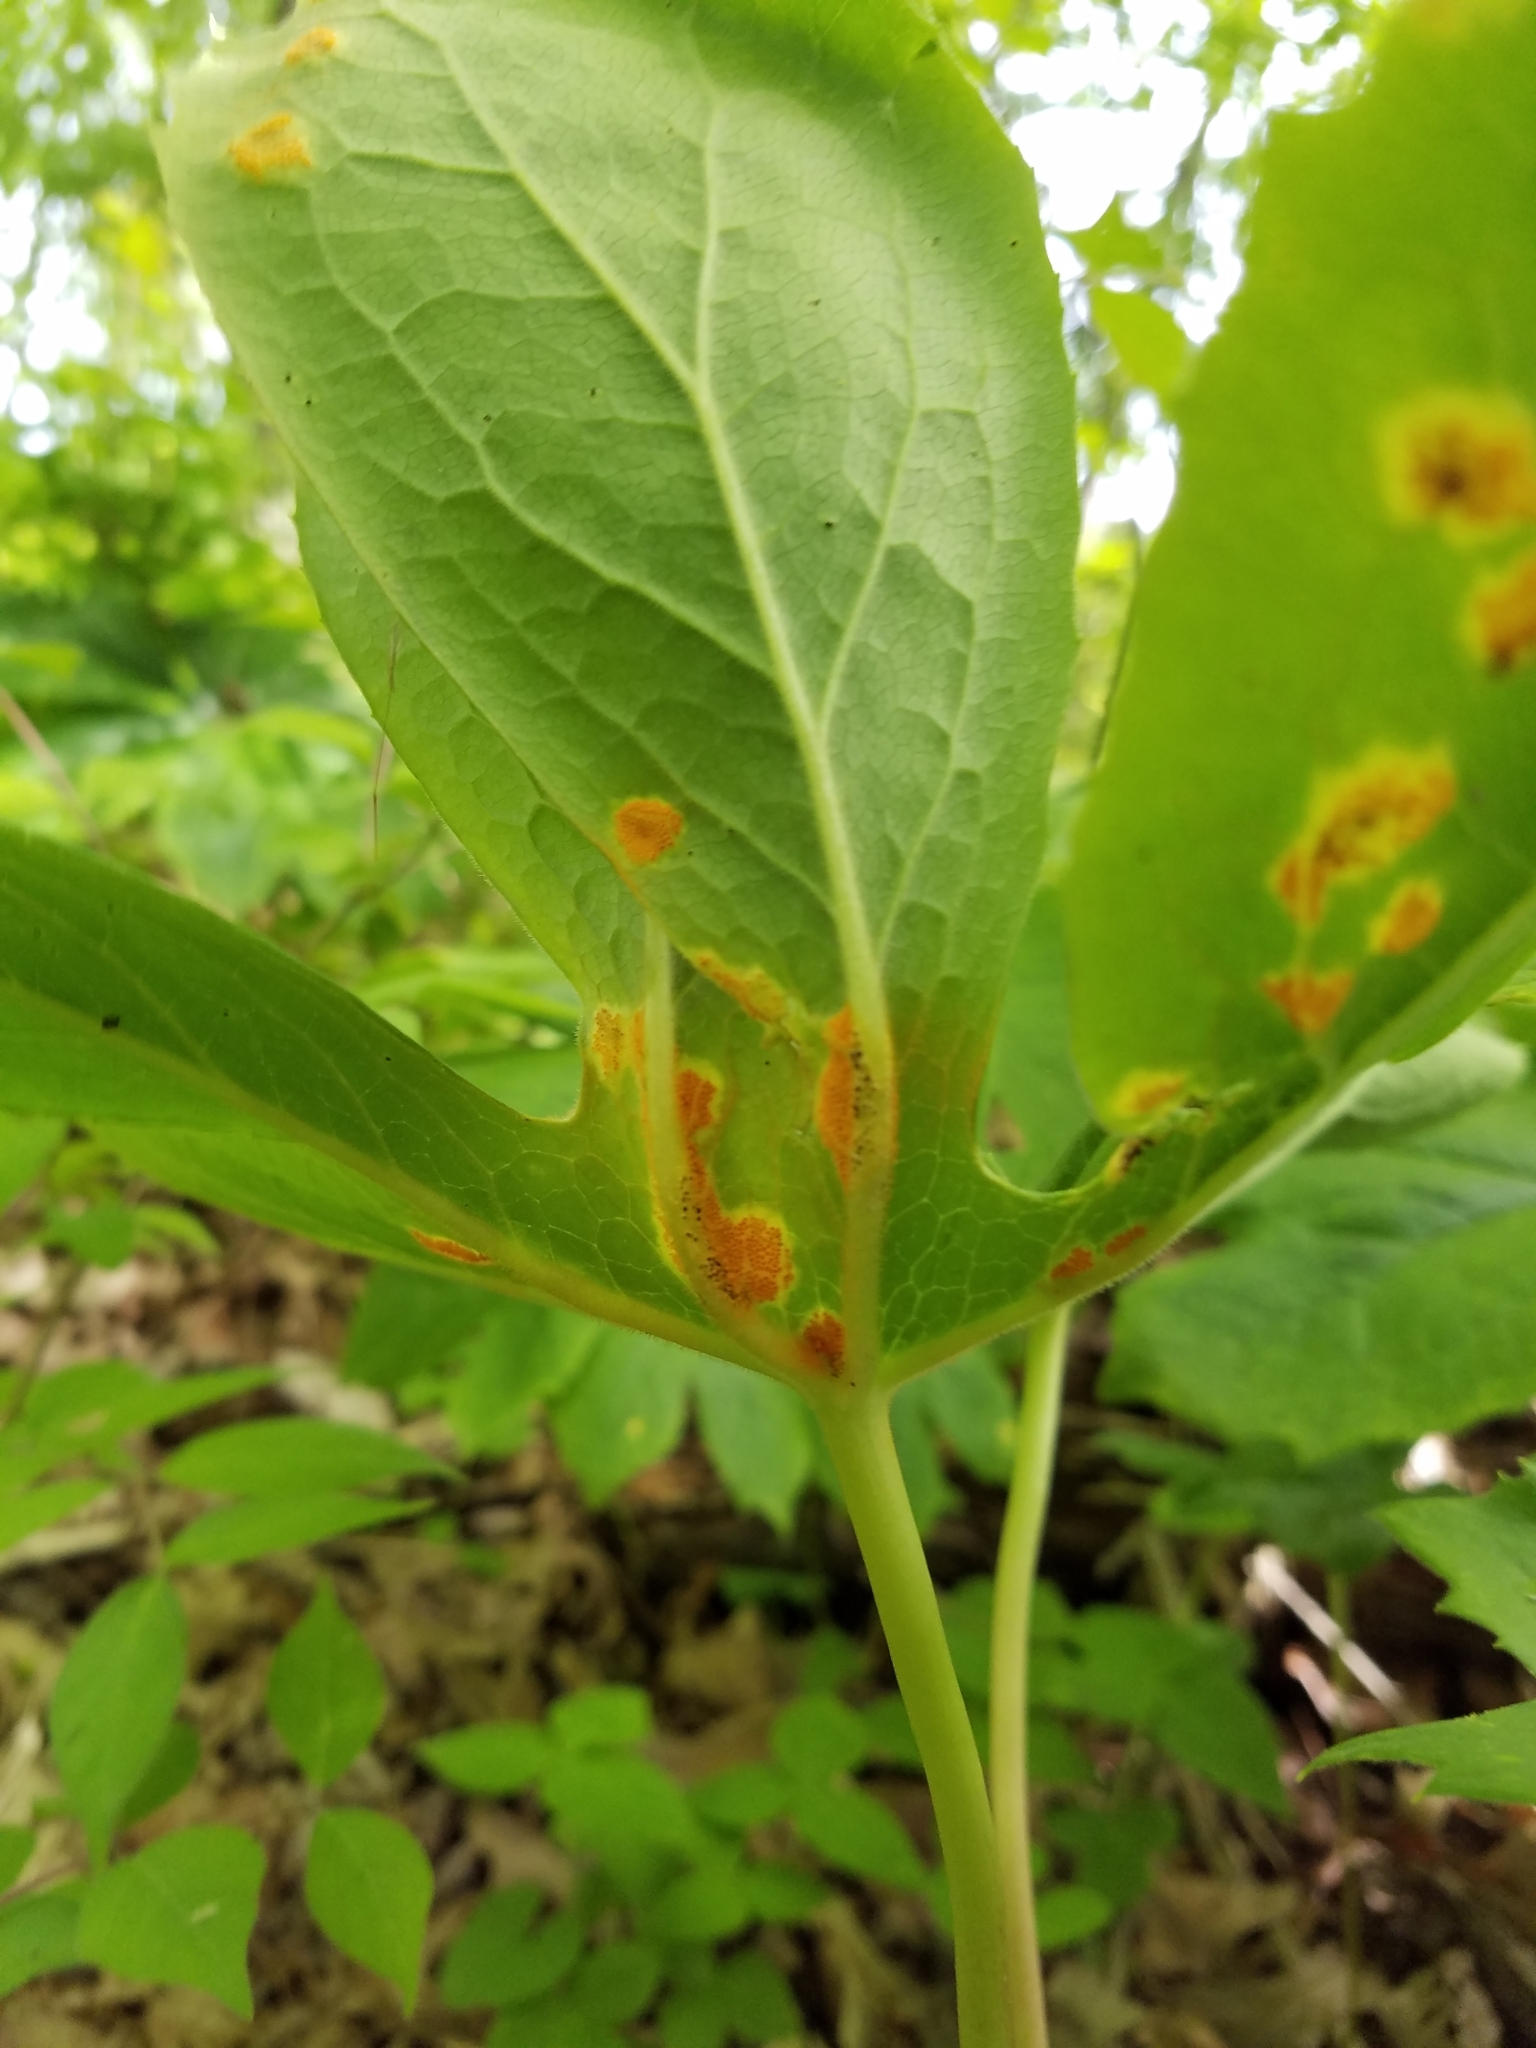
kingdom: Fungi
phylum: Basidiomycota
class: Pucciniomycetes
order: Pucciniales
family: Pucciniaceae
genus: Puccinia
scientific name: Puccinia podophylli
